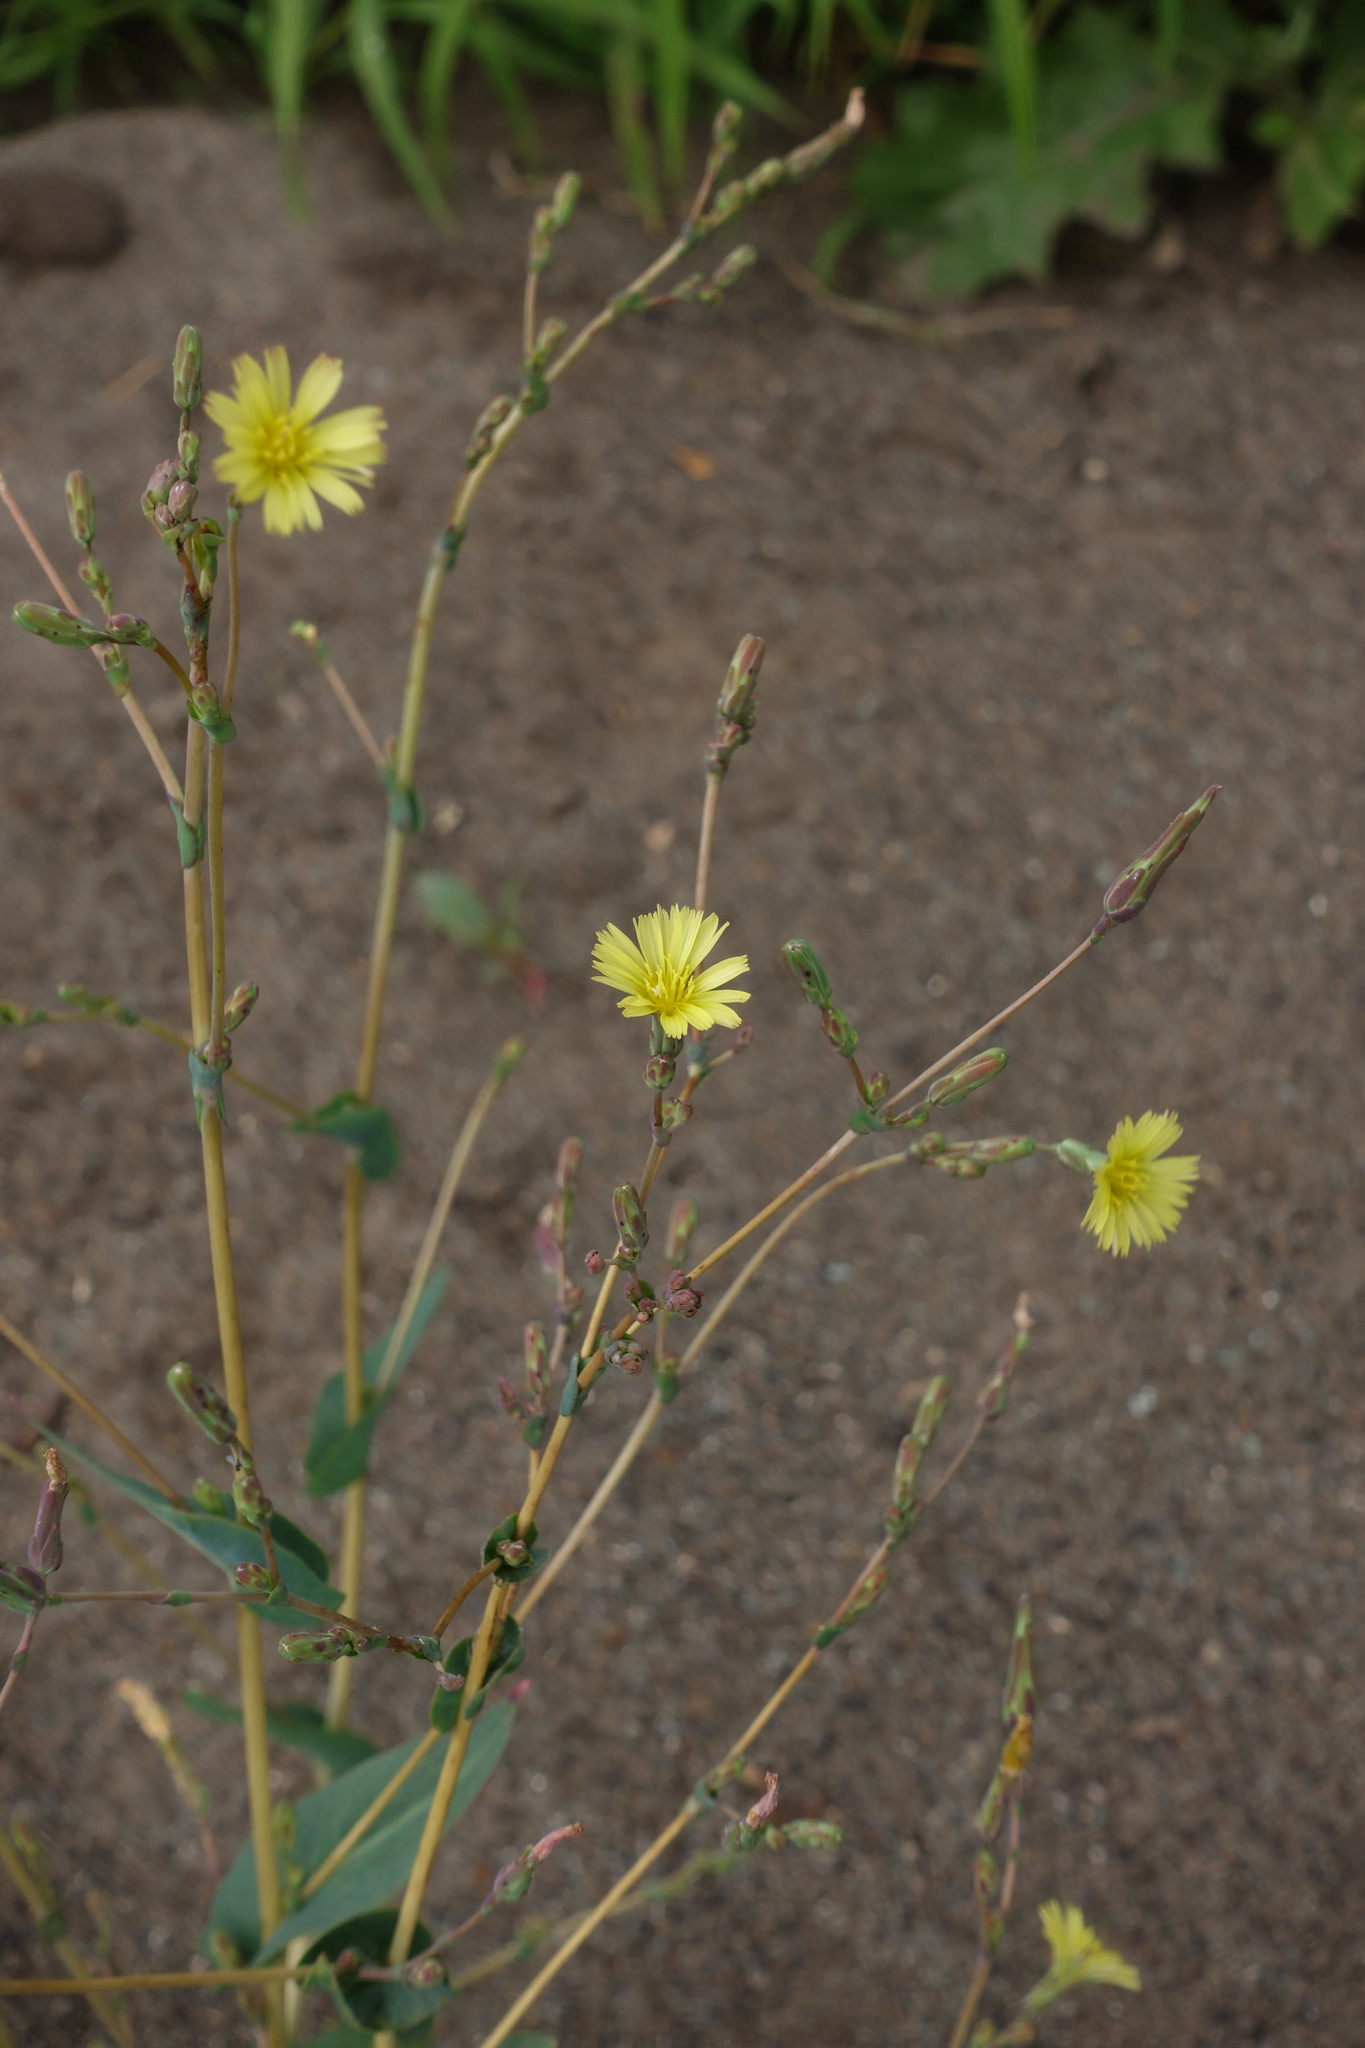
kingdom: Plantae
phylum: Tracheophyta
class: Magnoliopsida
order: Asterales
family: Asteraceae
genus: Lactuca
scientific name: Lactuca serriola
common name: Prickly lettuce
